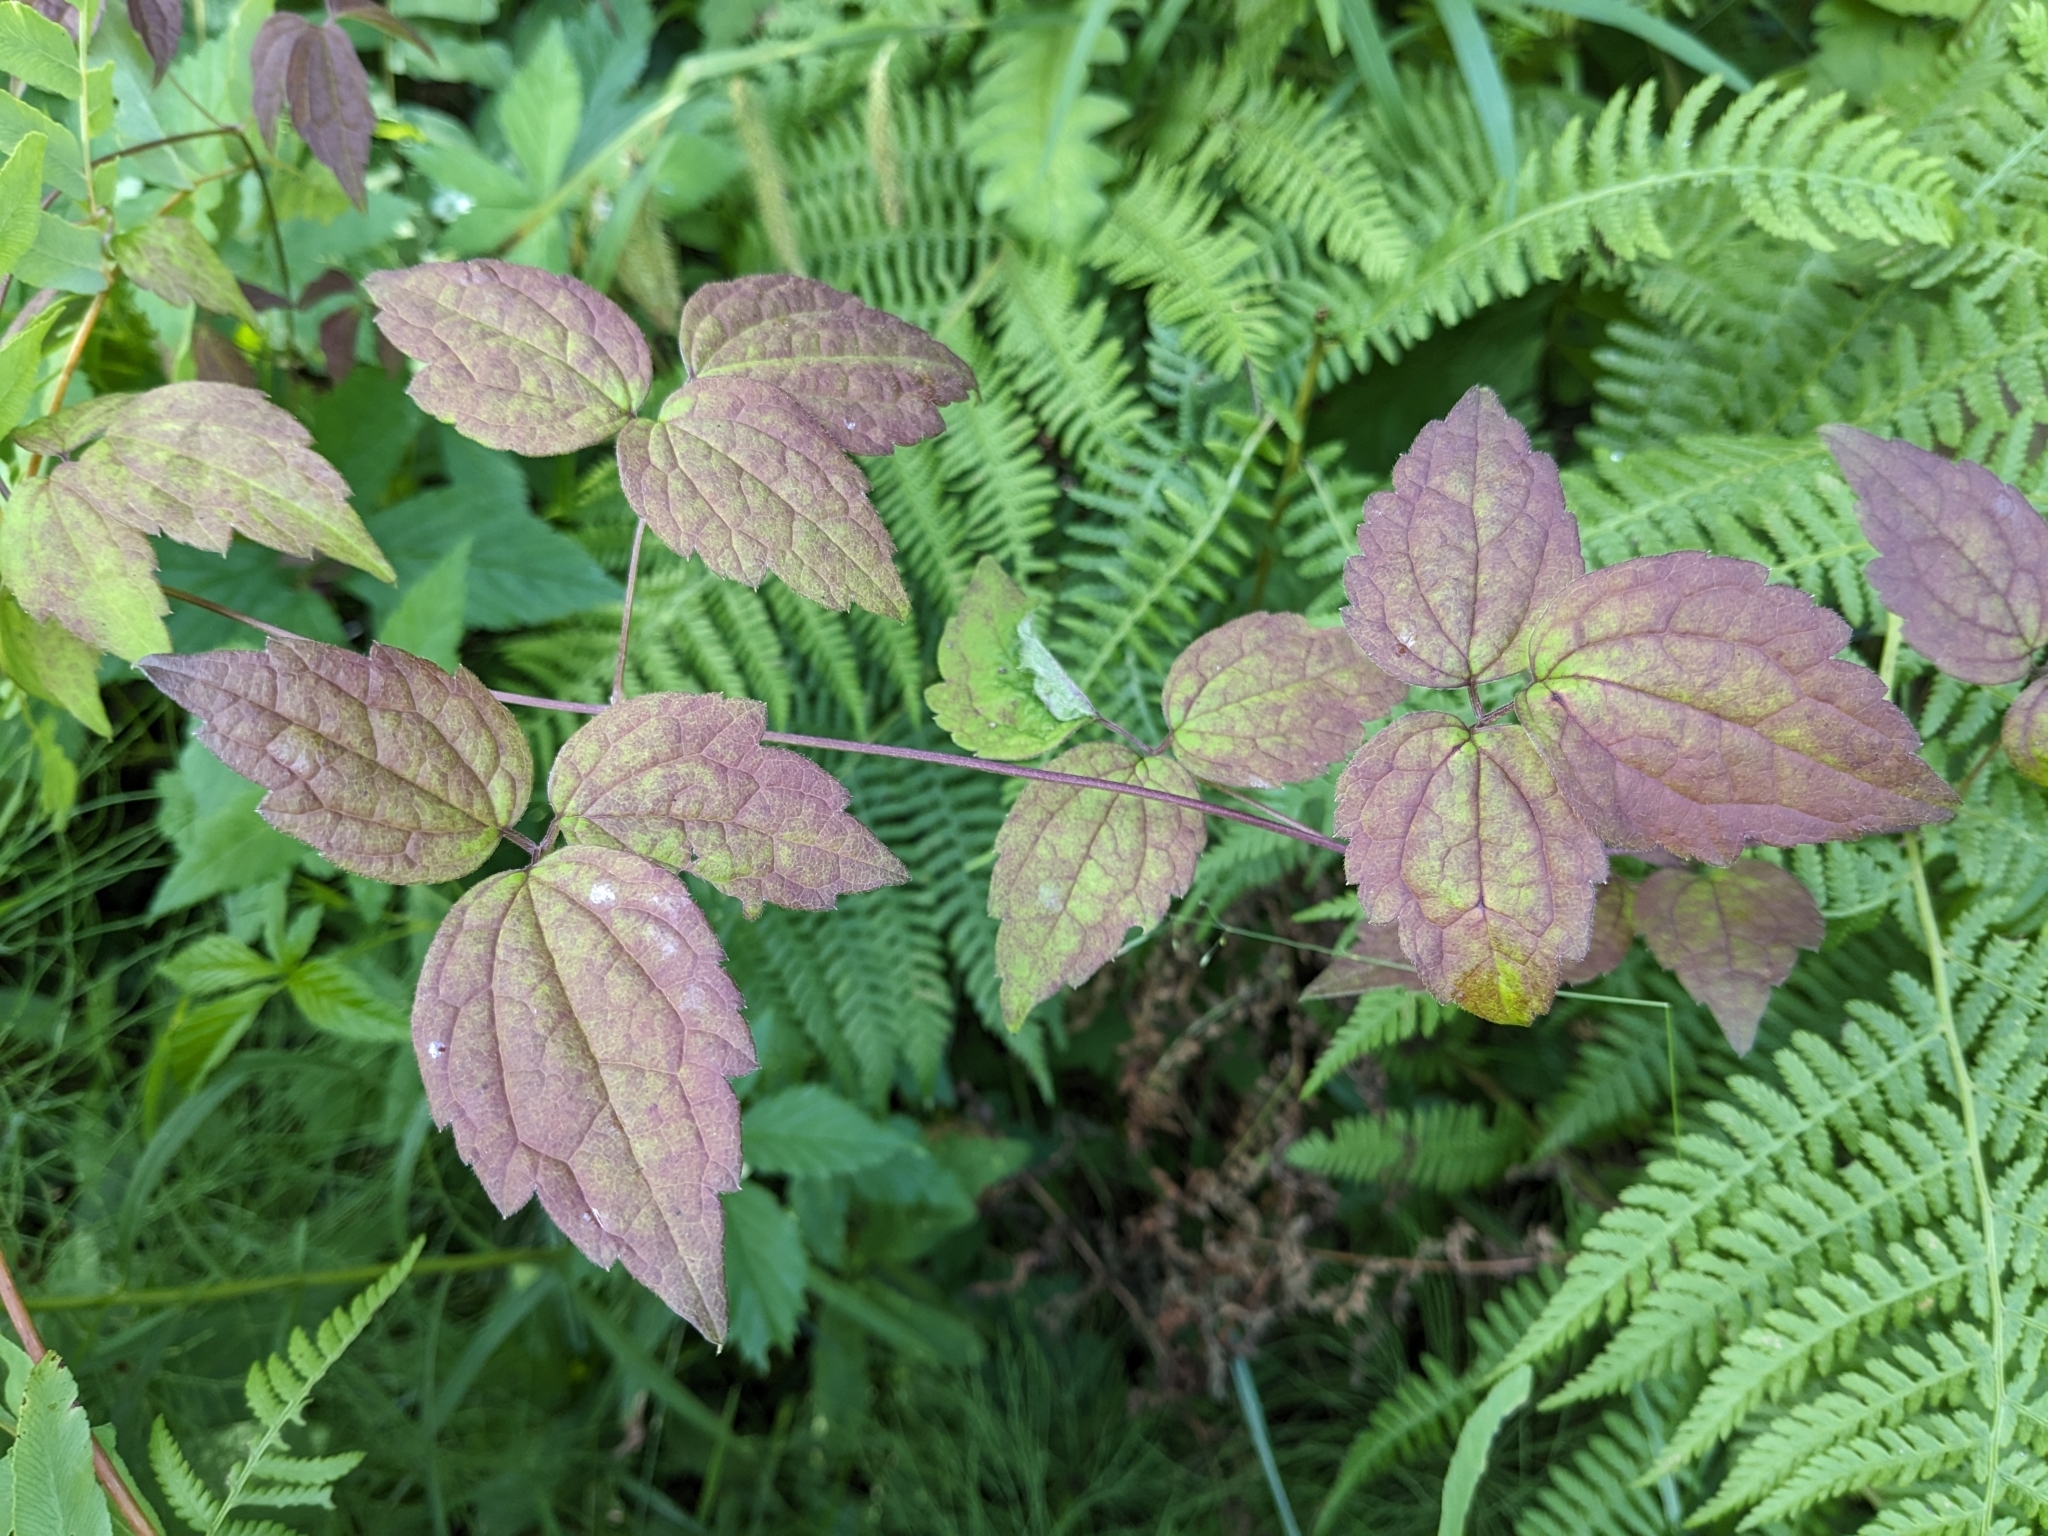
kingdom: Plantae
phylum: Tracheophyta
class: Magnoliopsida
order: Ranunculales
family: Ranunculaceae
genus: Clematis
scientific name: Clematis virginiana
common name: Virgin's-bower
